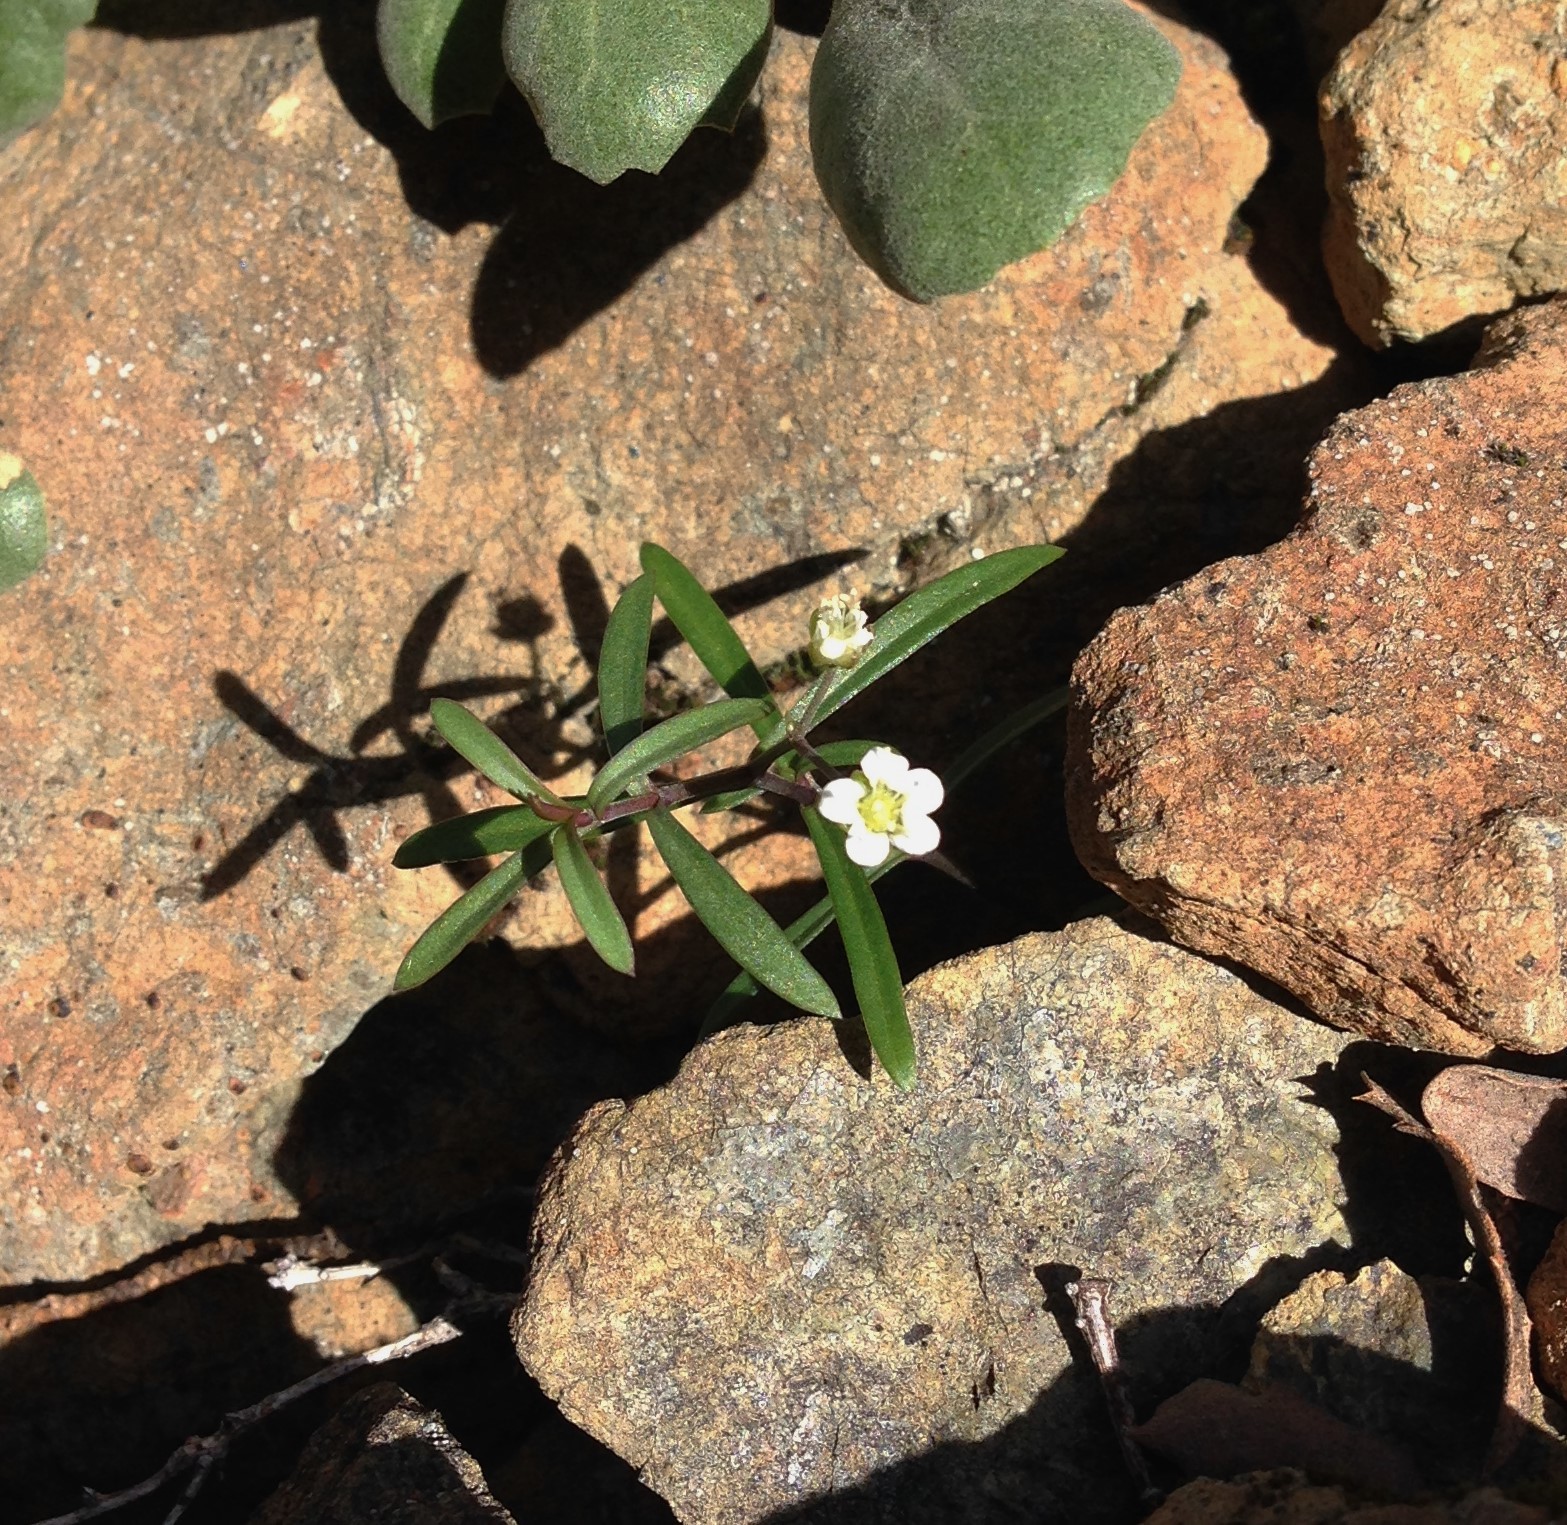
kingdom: Plantae
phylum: Tracheophyta
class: Magnoliopsida
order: Caryophyllales
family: Caryophyllaceae
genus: Moehringia
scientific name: Moehringia macrophylla
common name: Big-leaf sandwort
